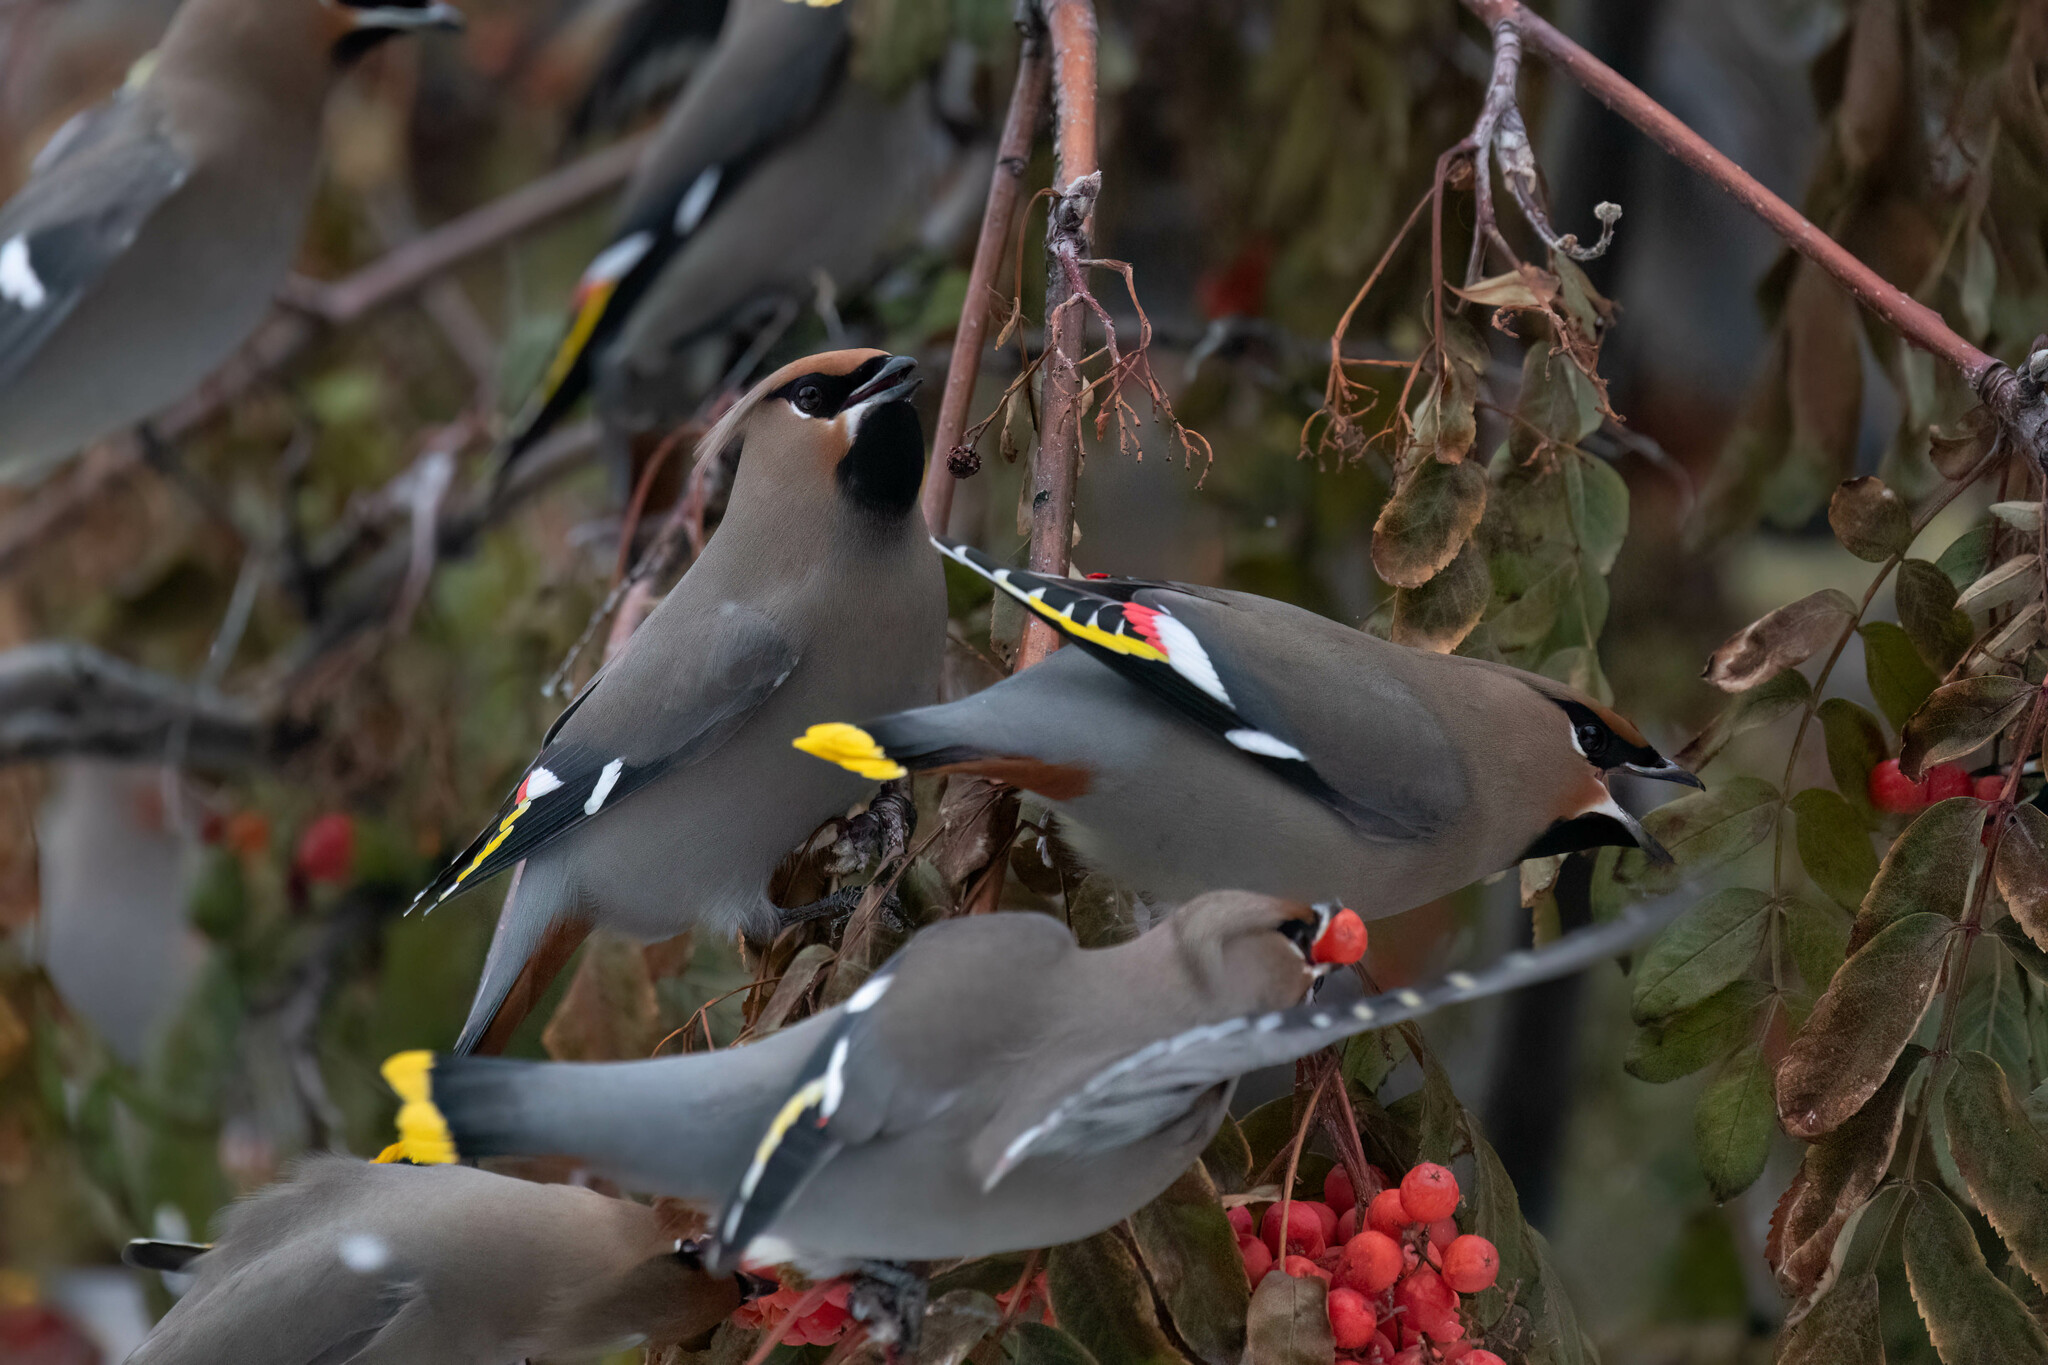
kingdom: Animalia
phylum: Chordata
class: Aves
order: Passeriformes
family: Bombycillidae
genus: Bombycilla
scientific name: Bombycilla garrulus
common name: Bohemian waxwing
